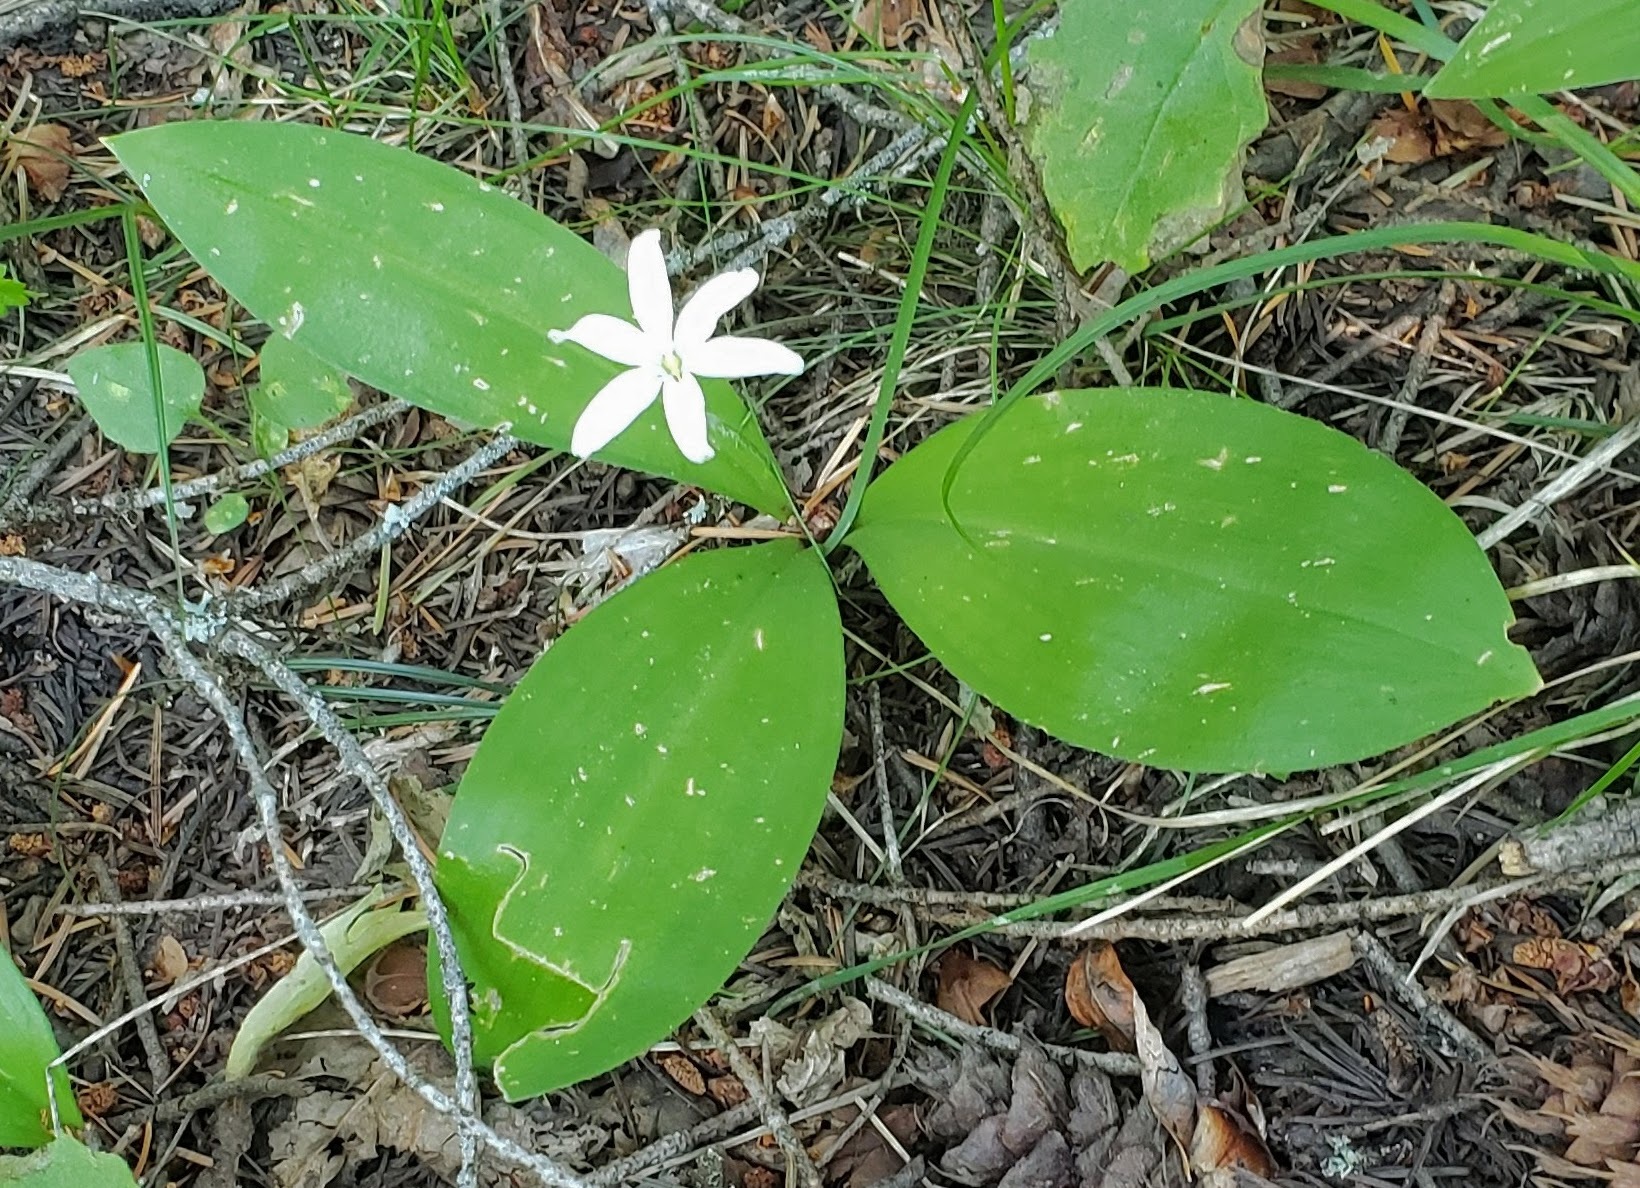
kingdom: Plantae
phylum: Tracheophyta
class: Liliopsida
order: Liliales
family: Liliaceae
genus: Clintonia
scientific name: Clintonia uniflora
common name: Queen's cup
